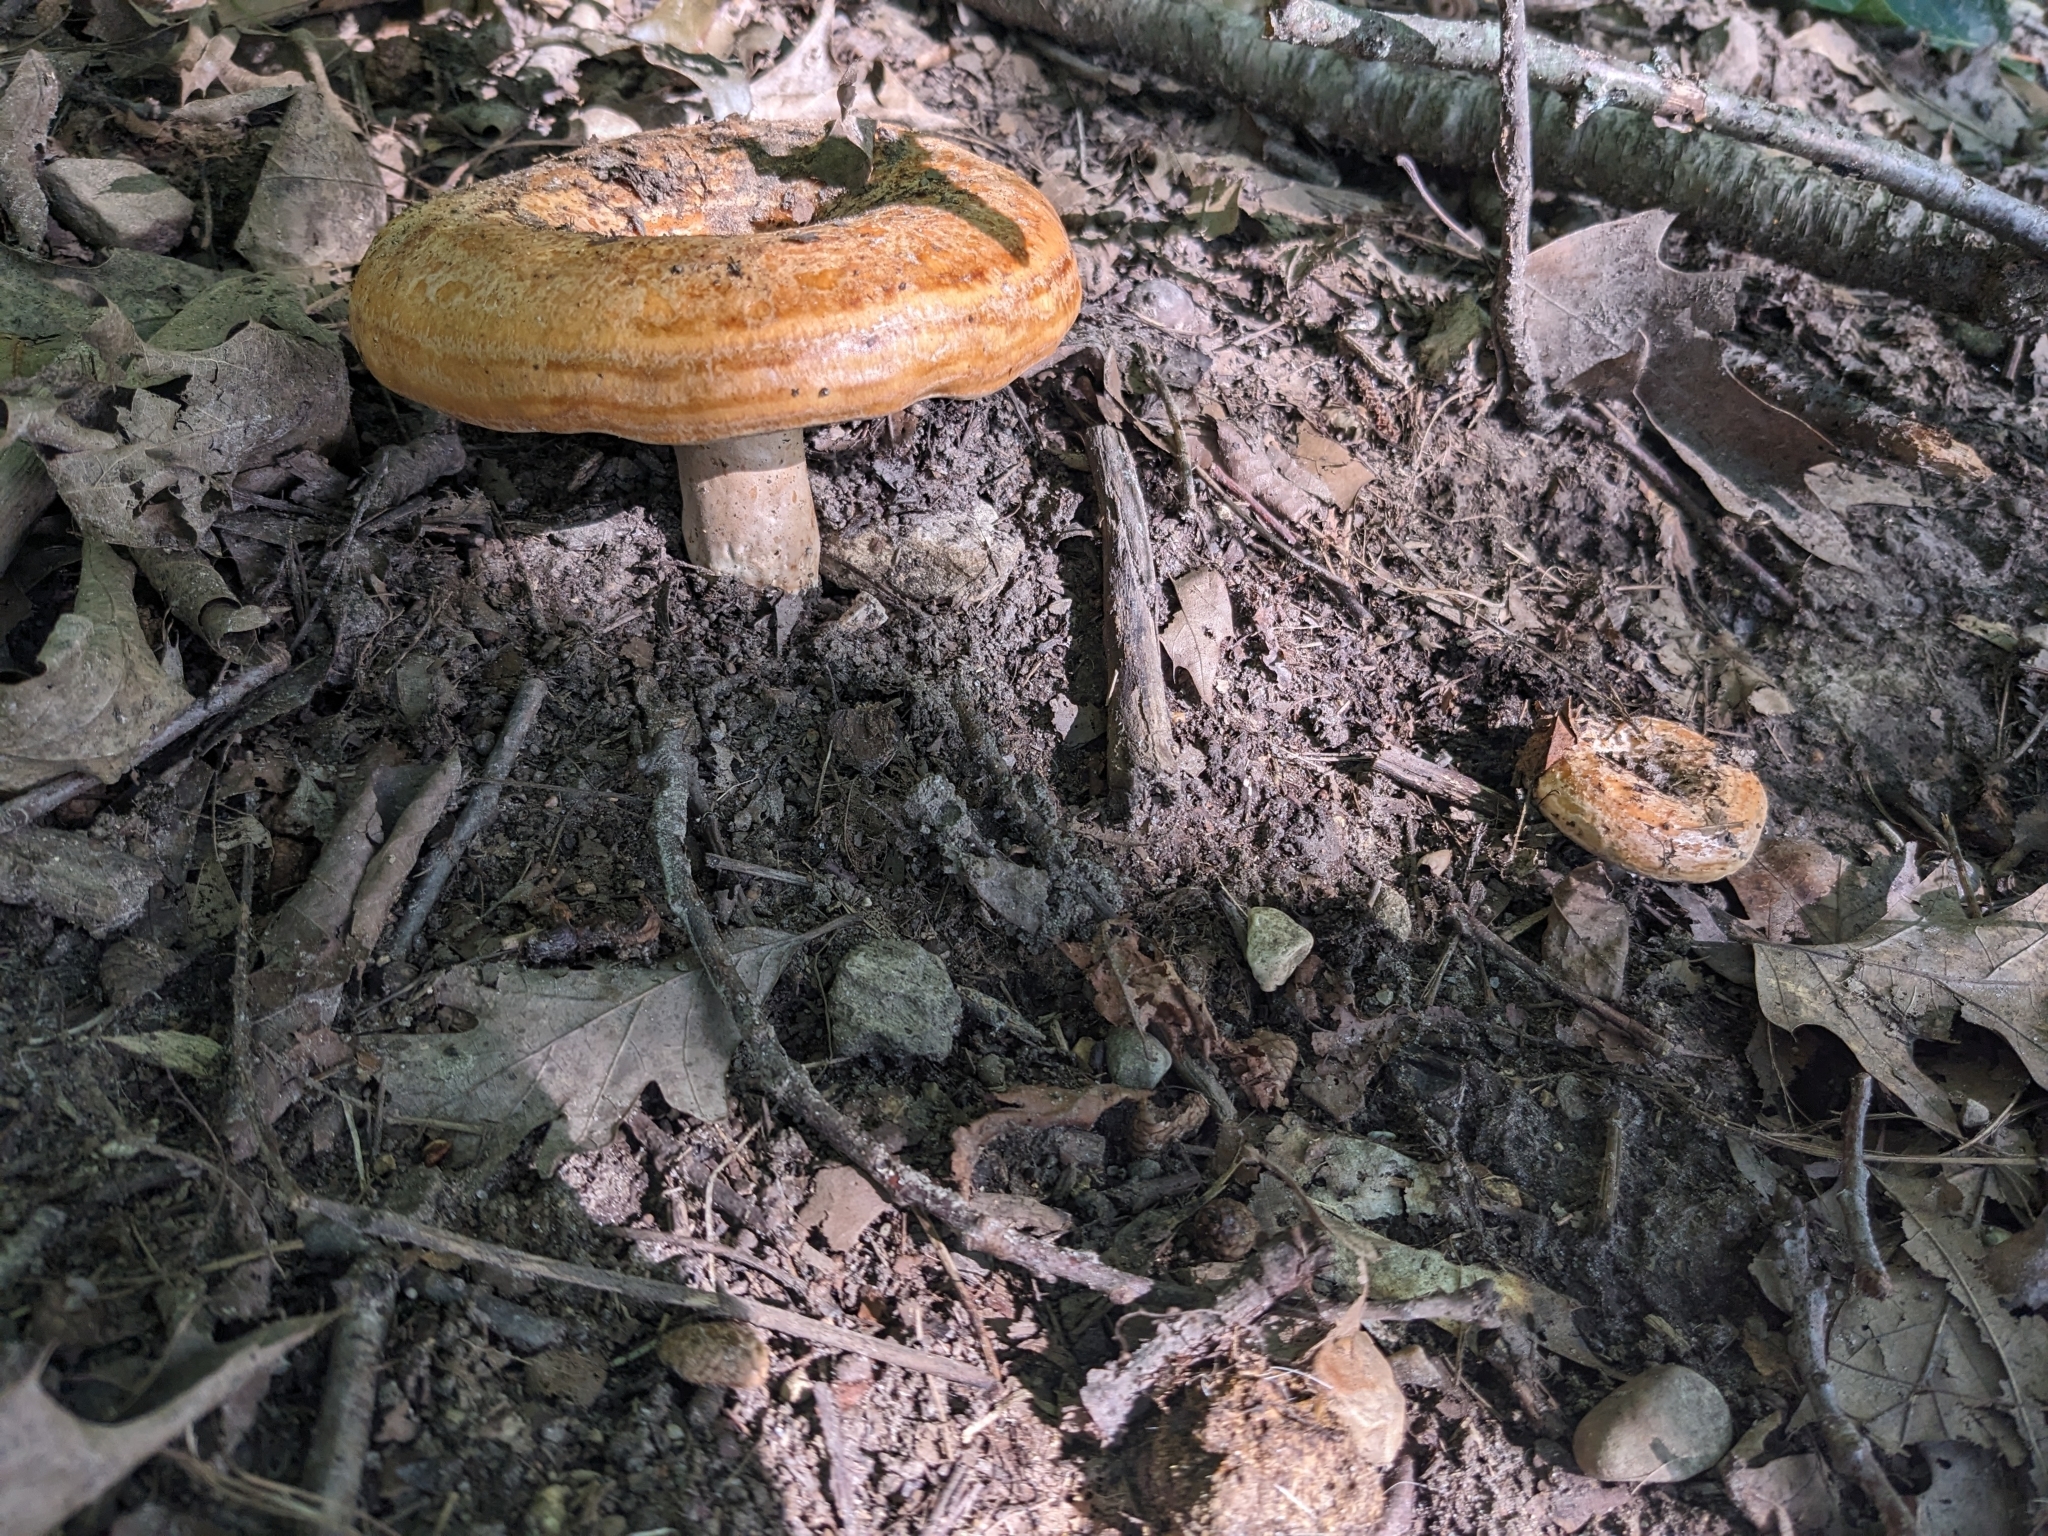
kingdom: Fungi
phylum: Basidiomycota
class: Agaricomycetes
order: Russulales
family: Russulaceae
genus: Lactarius
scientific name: Lactarius psammicola
